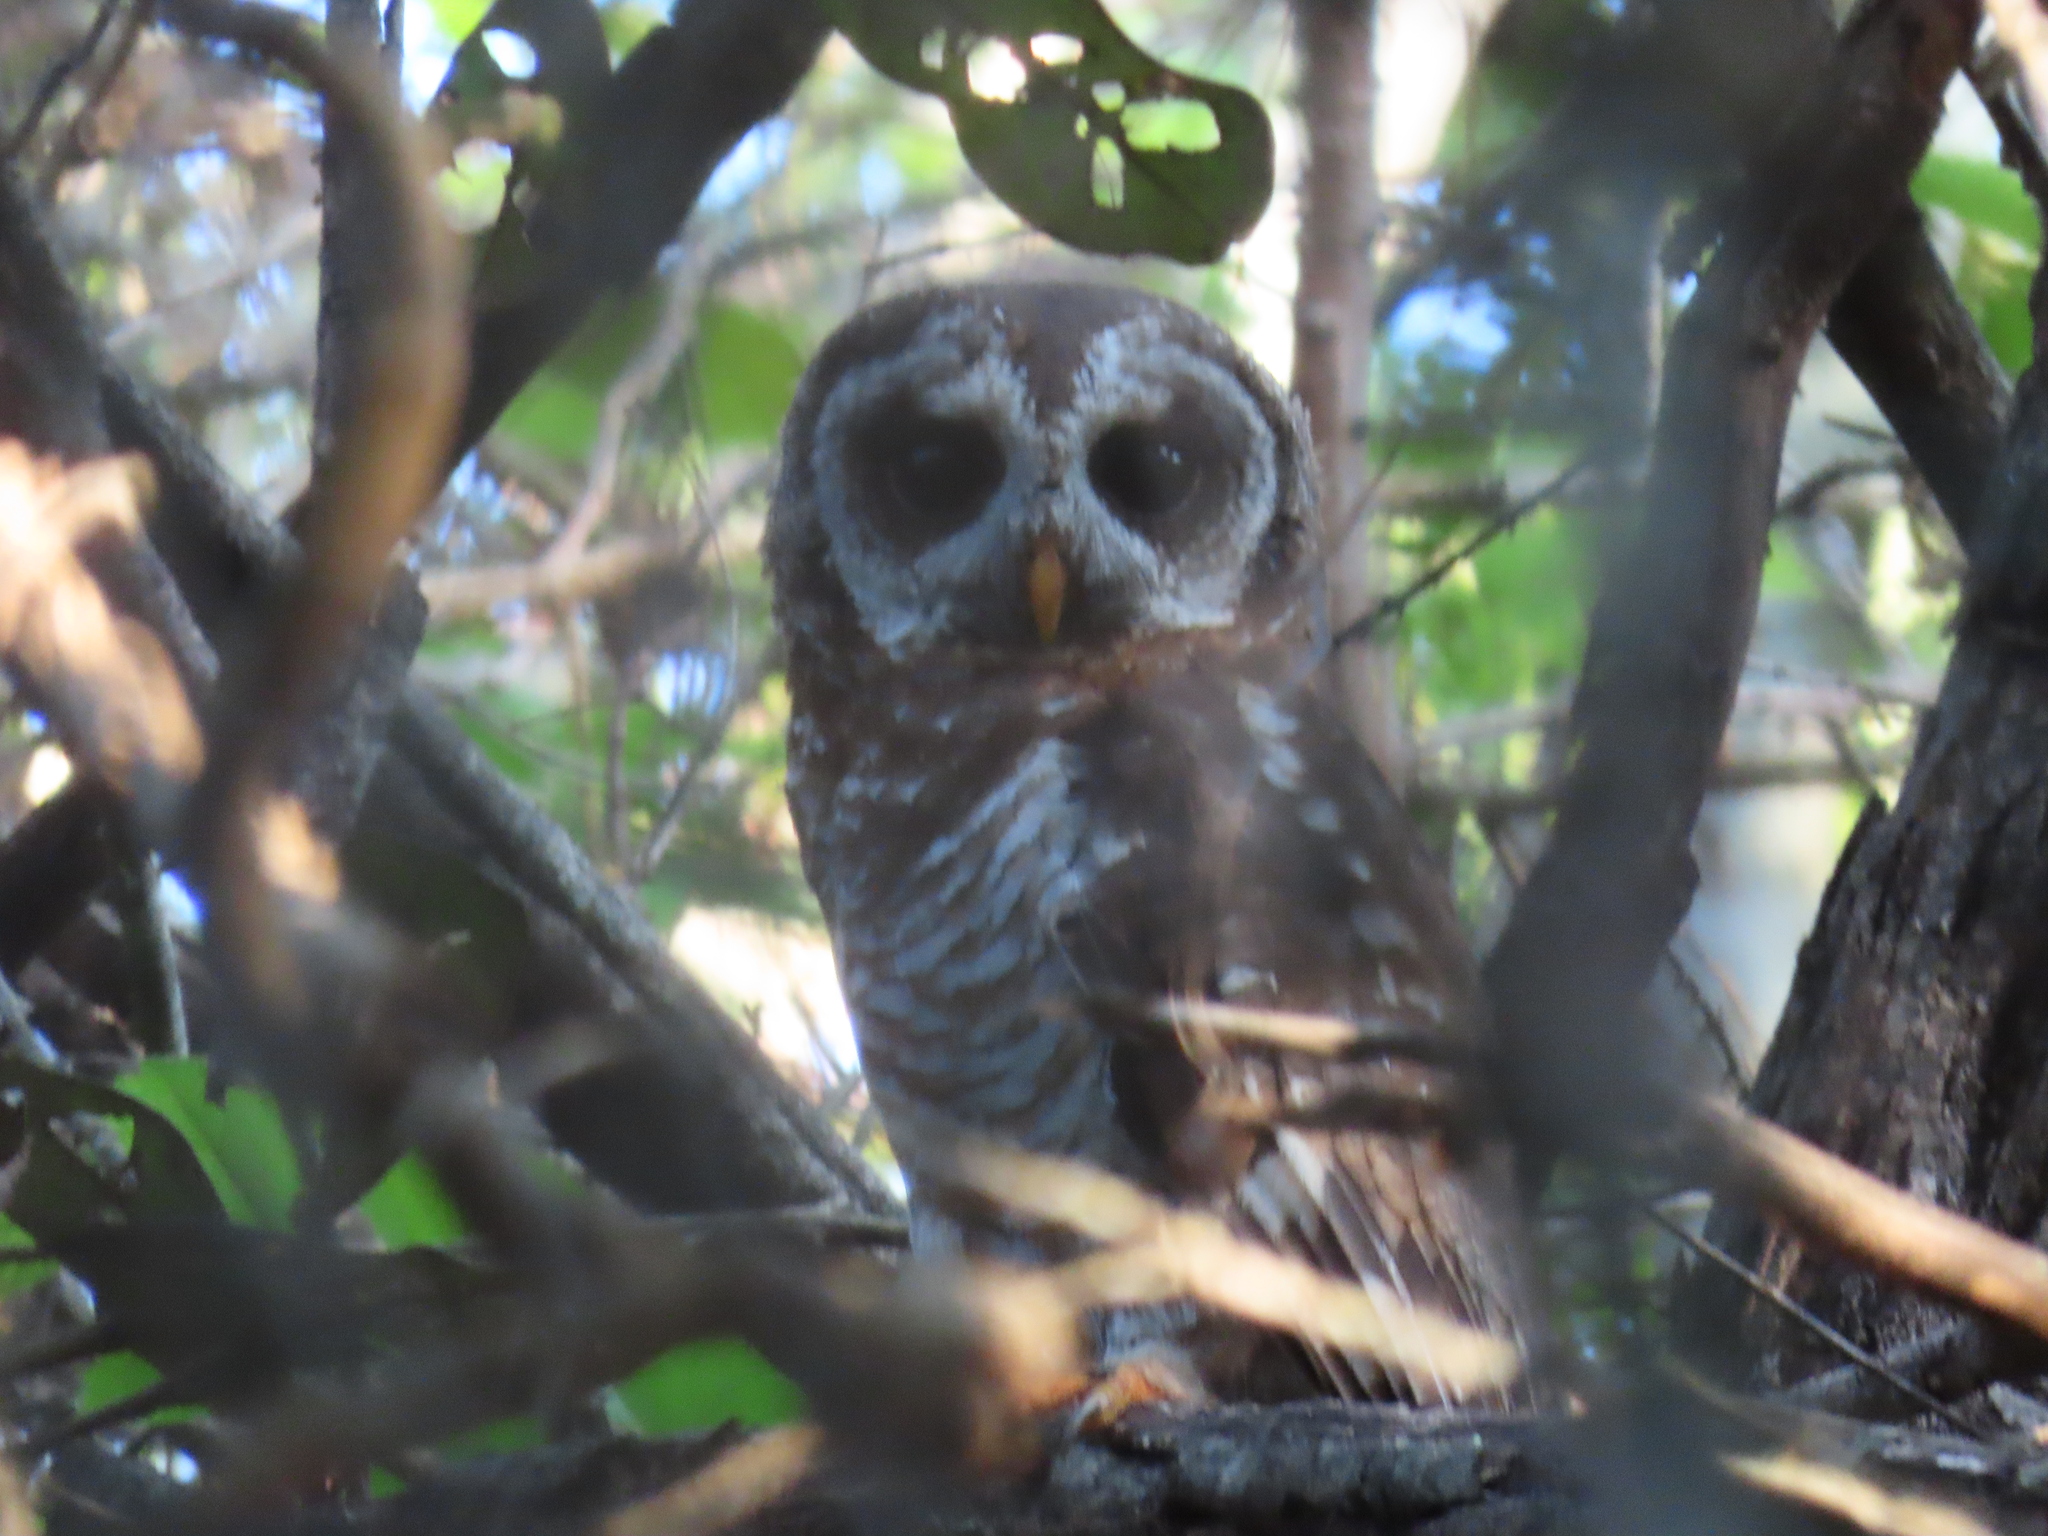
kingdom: Animalia
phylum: Chordata
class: Aves
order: Strigiformes
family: Strigidae
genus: Strix
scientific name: Strix woodfordii
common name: African wood owl
